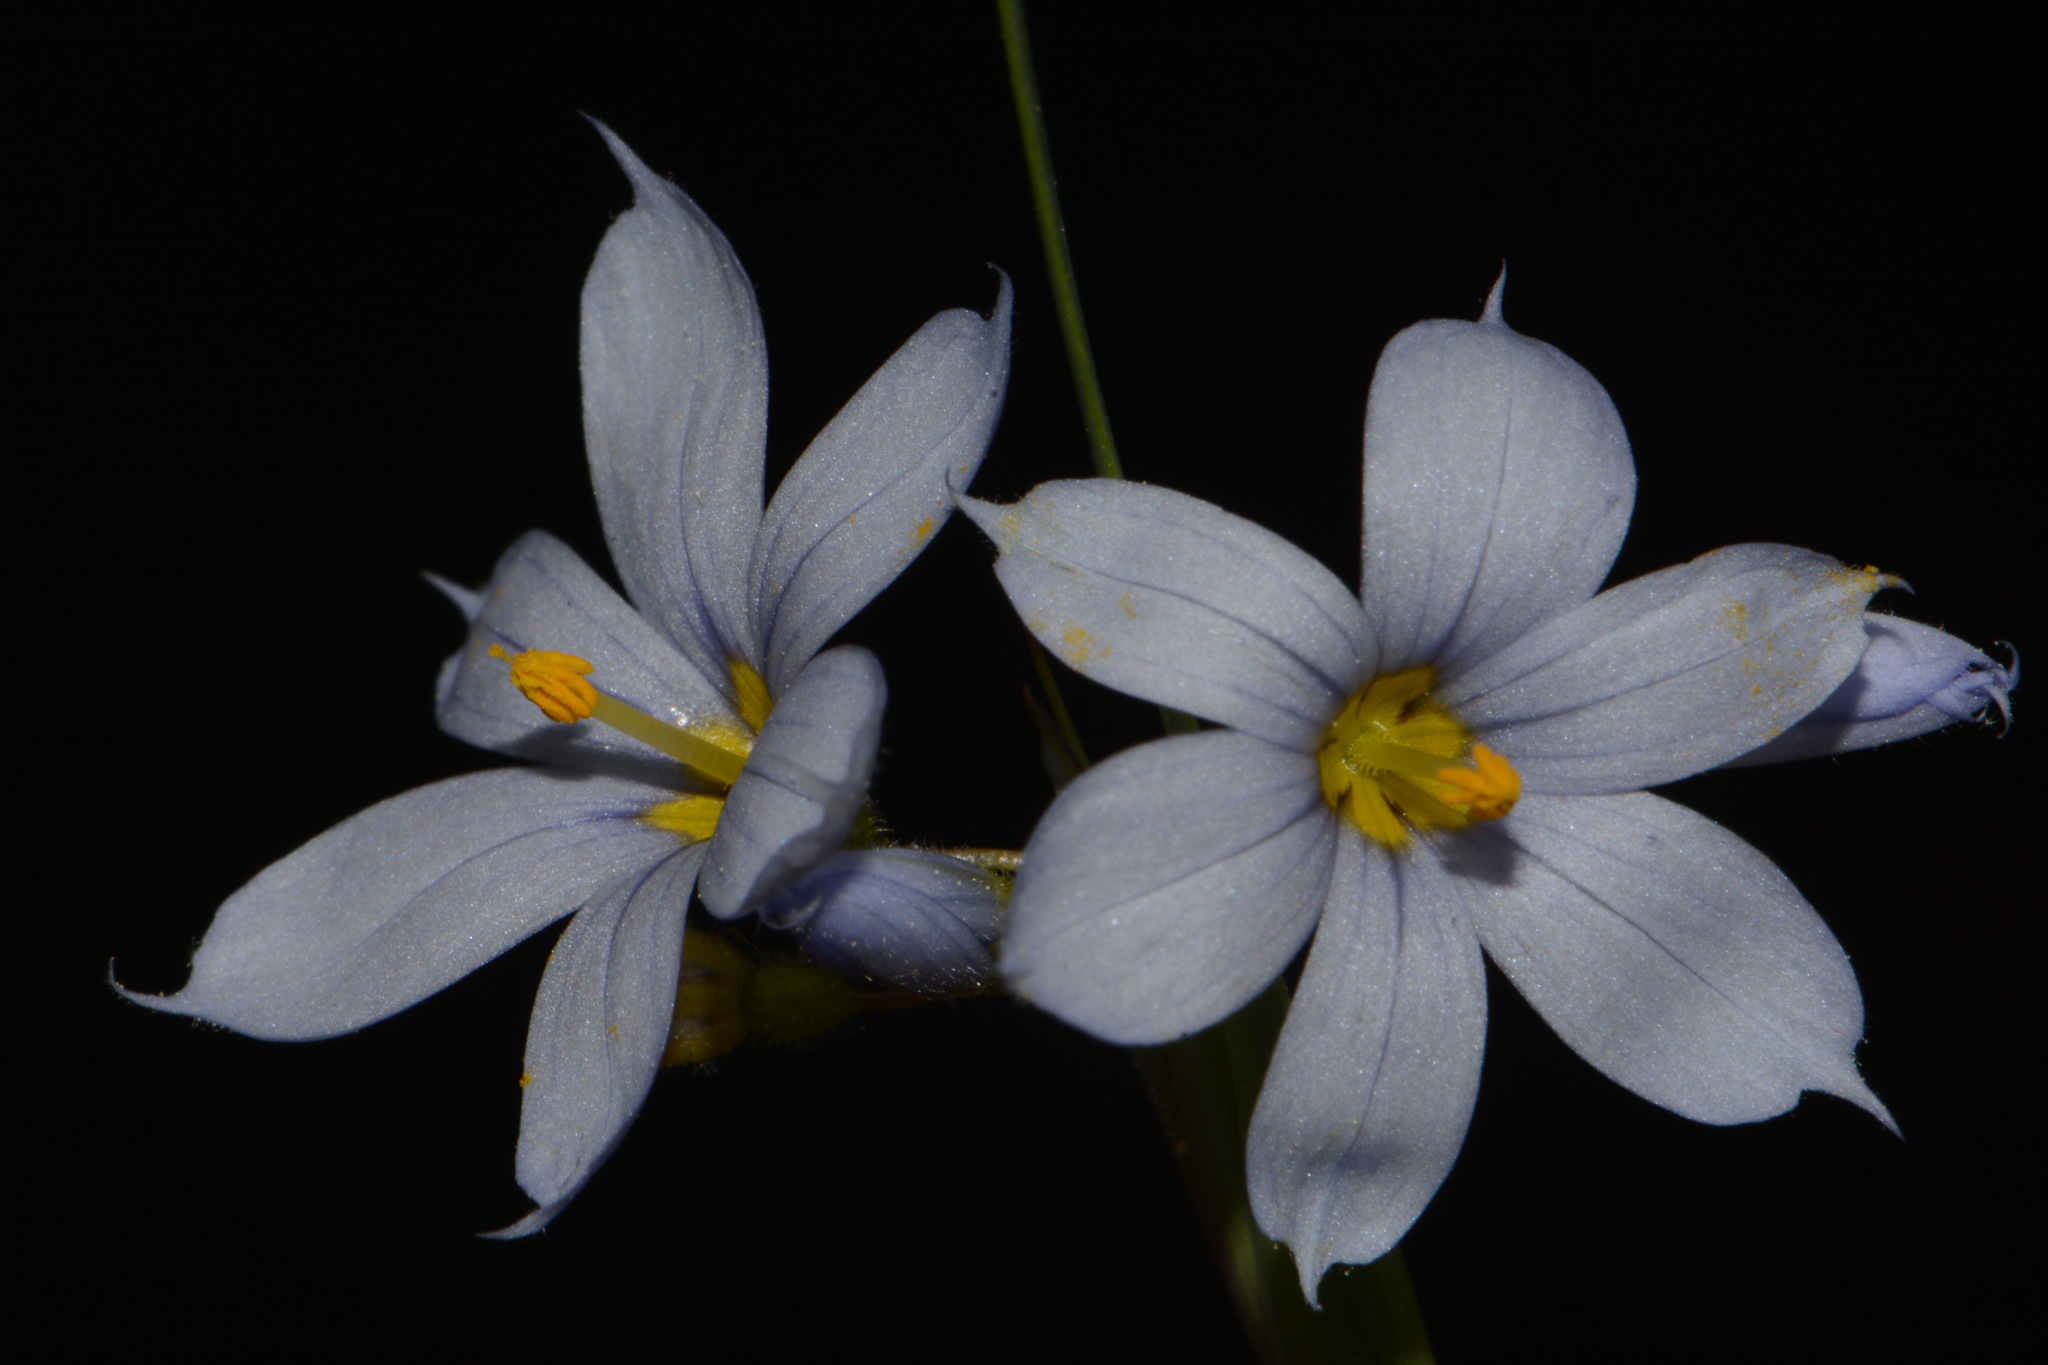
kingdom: Plantae
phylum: Tracheophyta
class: Liliopsida
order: Asparagales
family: Iridaceae
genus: Sisyrinchium
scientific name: Sisyrinchium albidum
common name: Pale blue-eyed-grass
